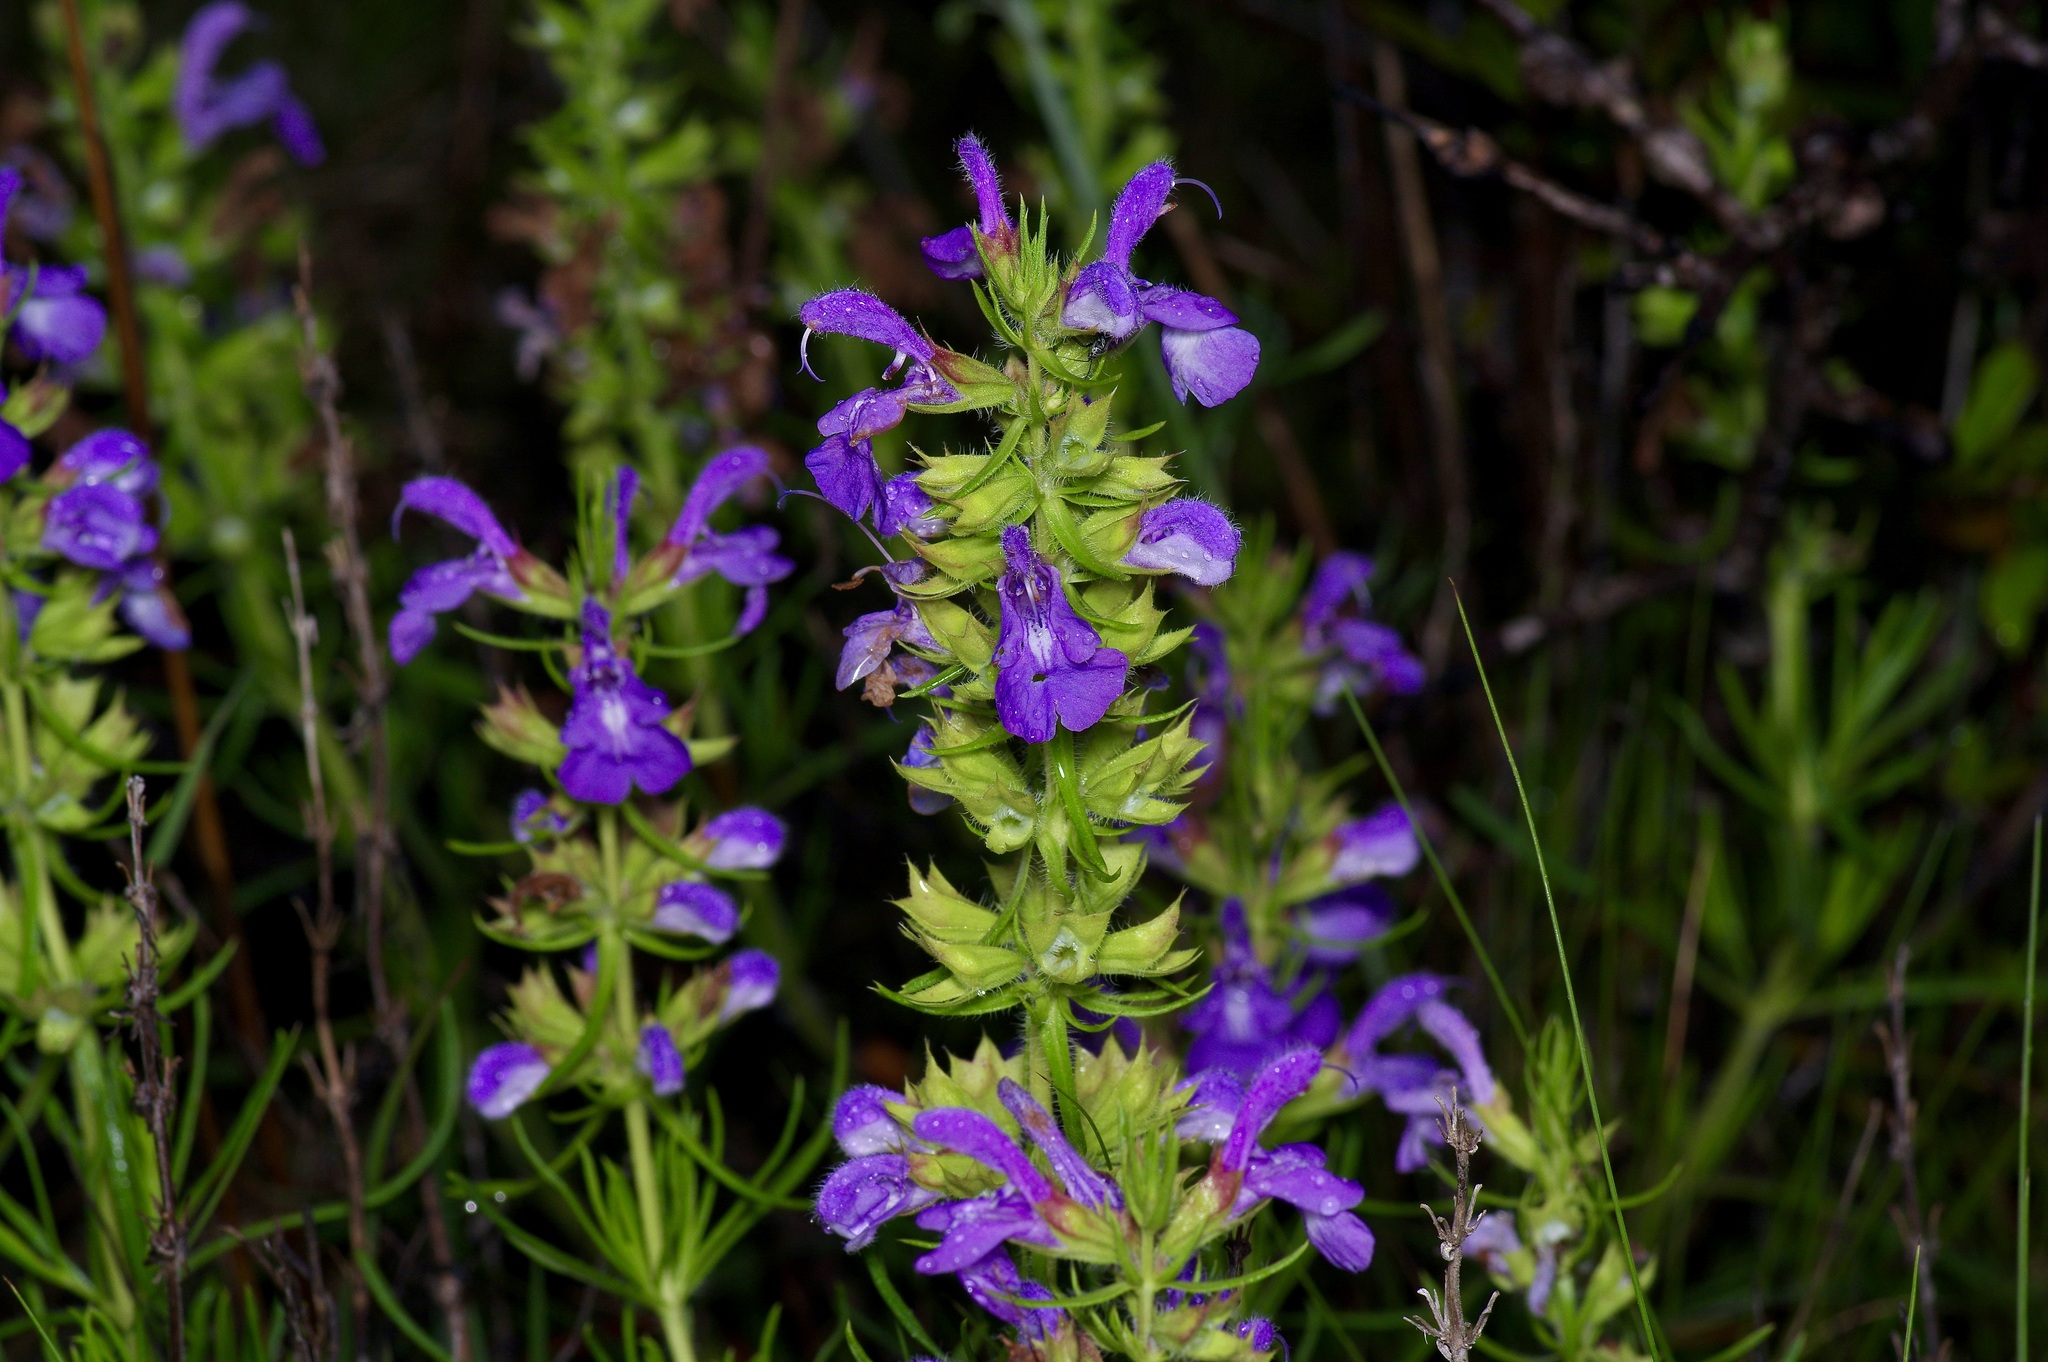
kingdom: Plantae
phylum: Tracheophyta
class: Magnoliopsida
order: Lamiales
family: Lamiaceae
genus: Salvia
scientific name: Salvia engelmannii
